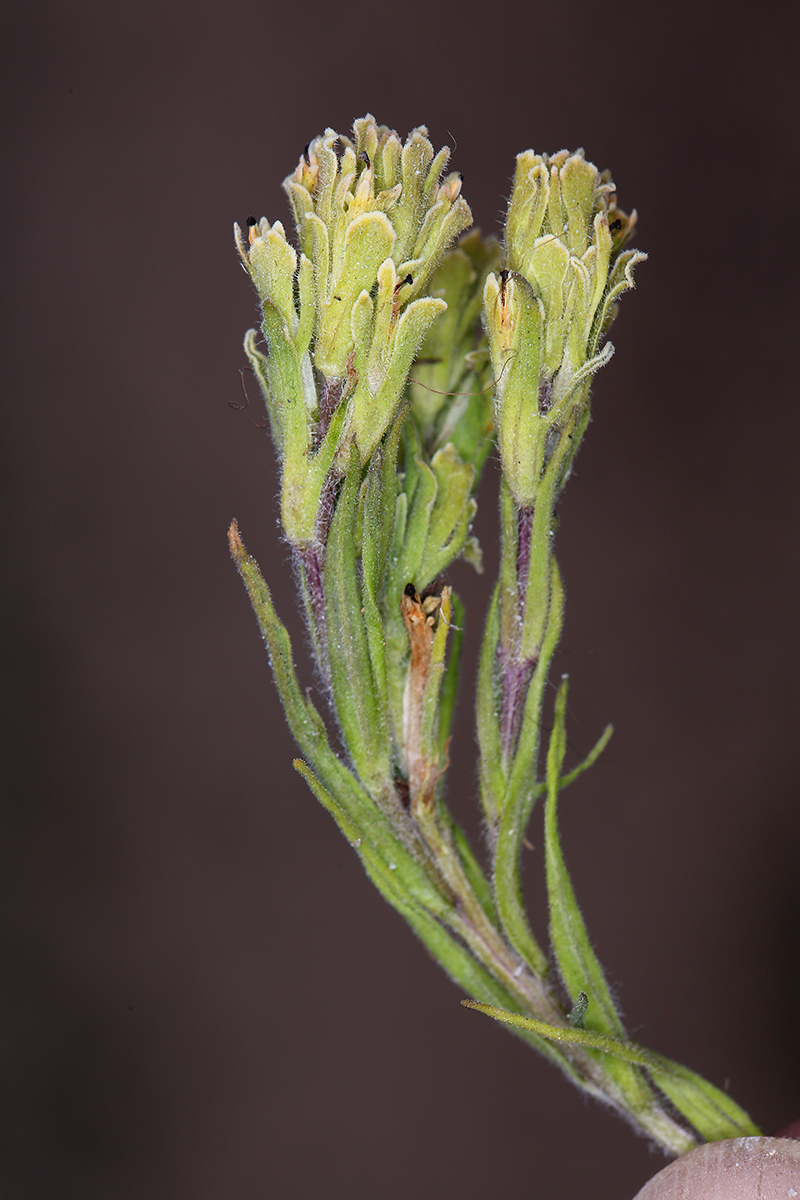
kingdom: Plantae
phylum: Tracheophyta
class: Magnoliopsida
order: Lamiales
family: Orobanchaceae
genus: Castilleja
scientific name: Castilleja pilosa
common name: Hairy paintbrush
